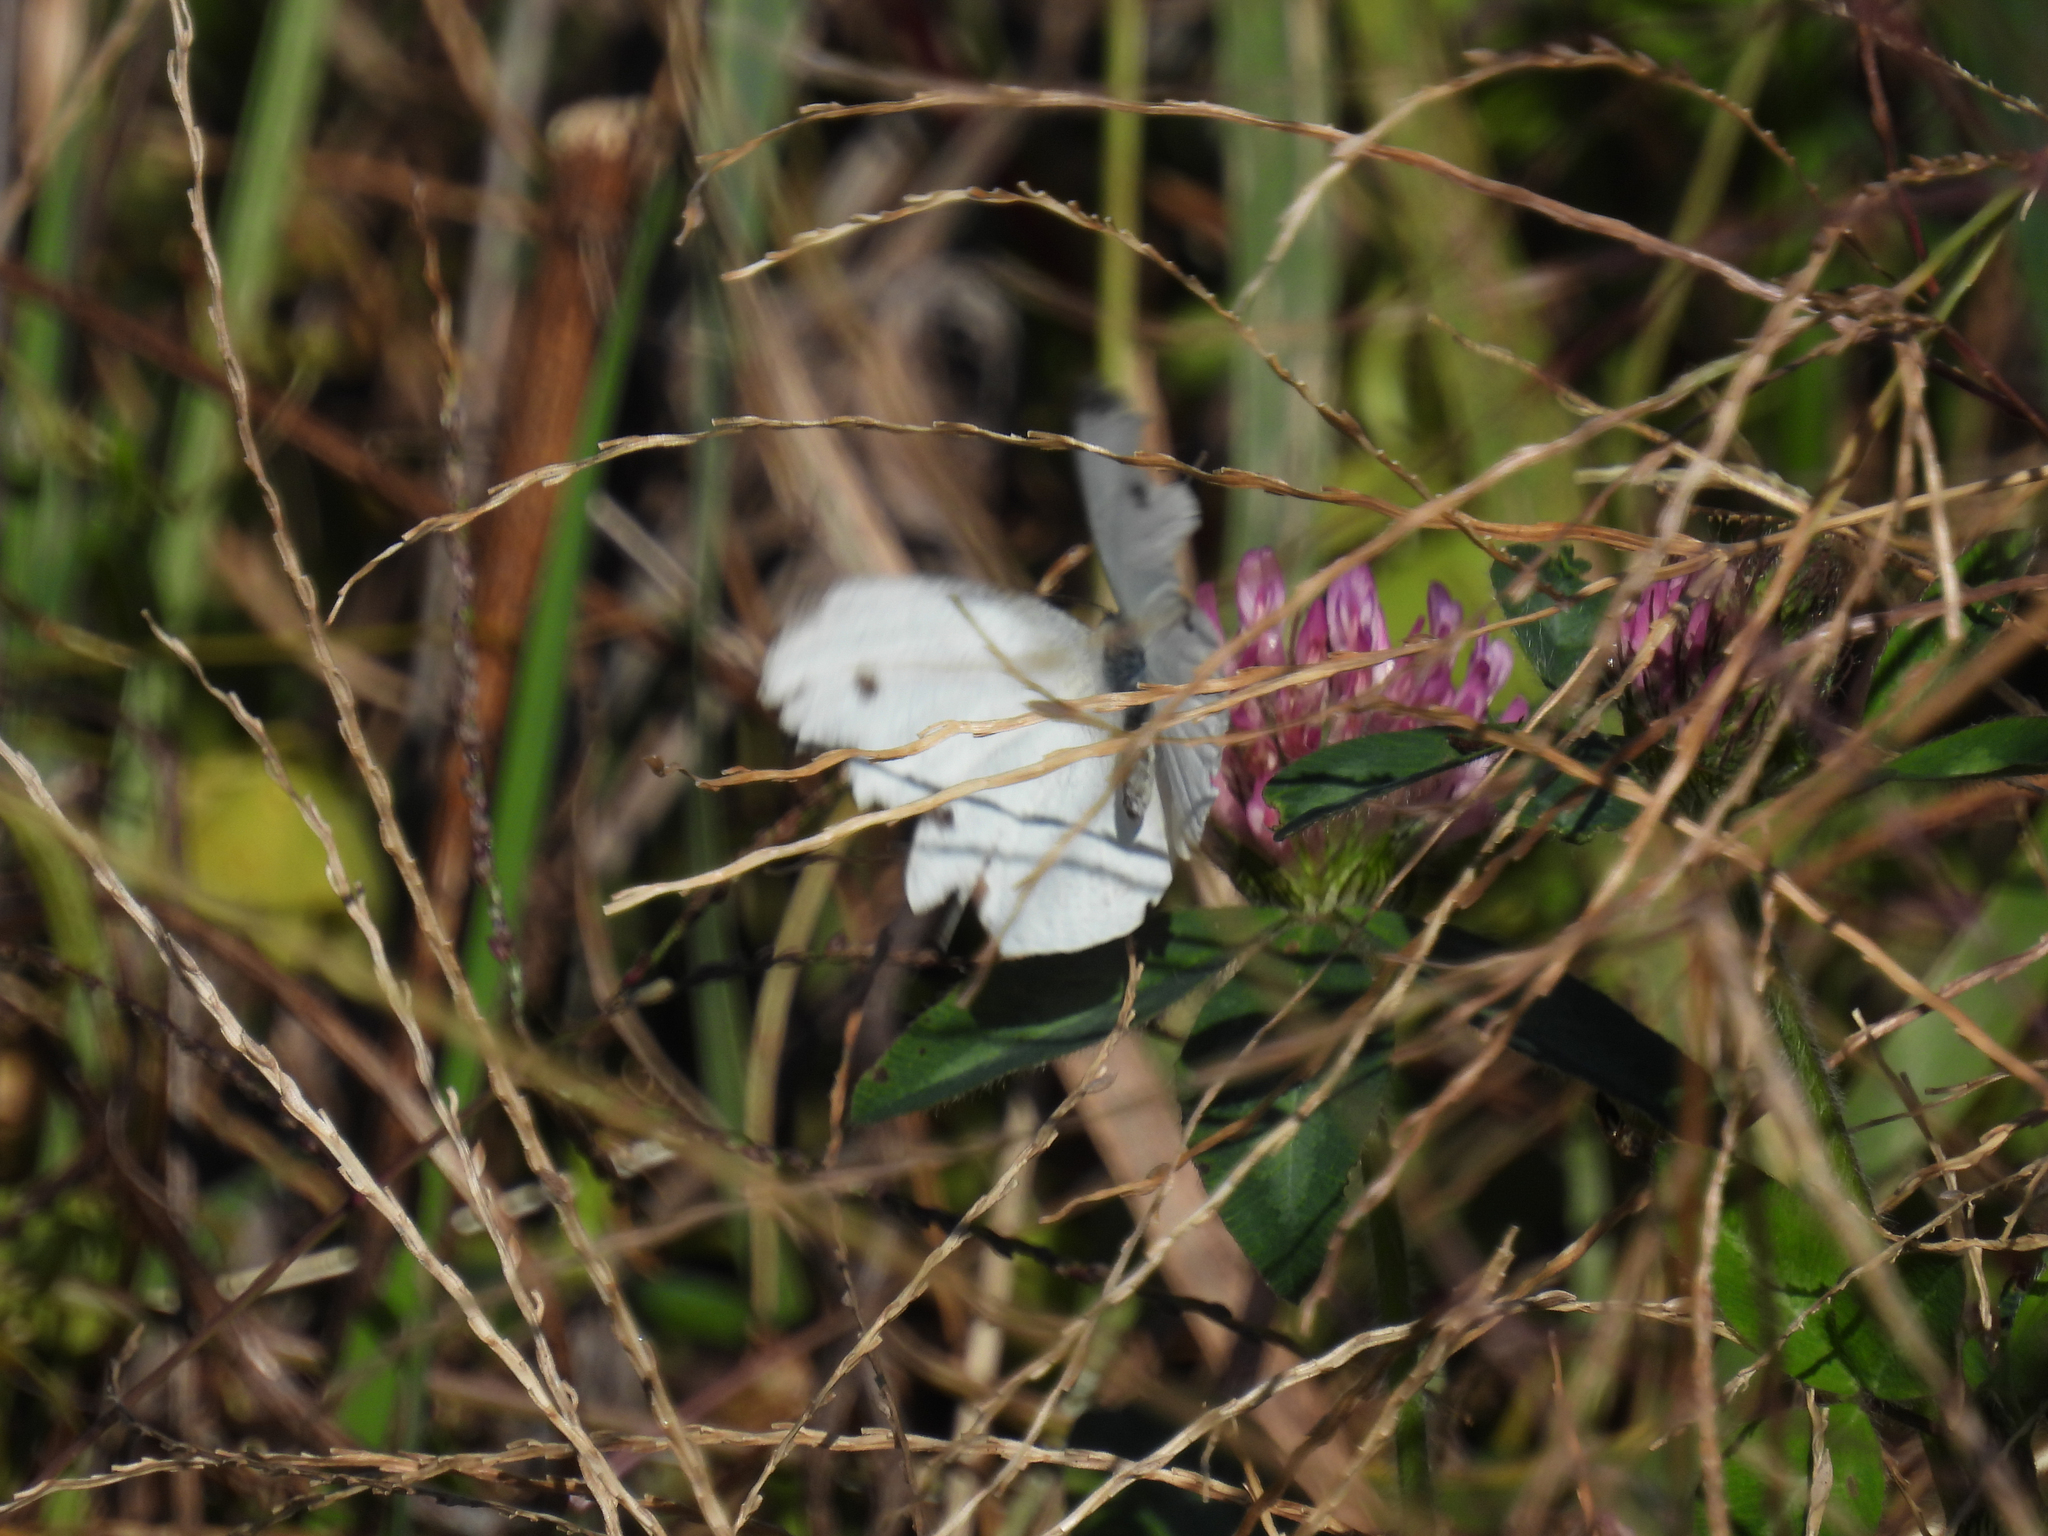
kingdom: Animalia
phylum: Arthropoda
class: Insecta
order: Lepidoptera
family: Pieridae
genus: Pieris
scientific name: Pieris rapae
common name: Small white
